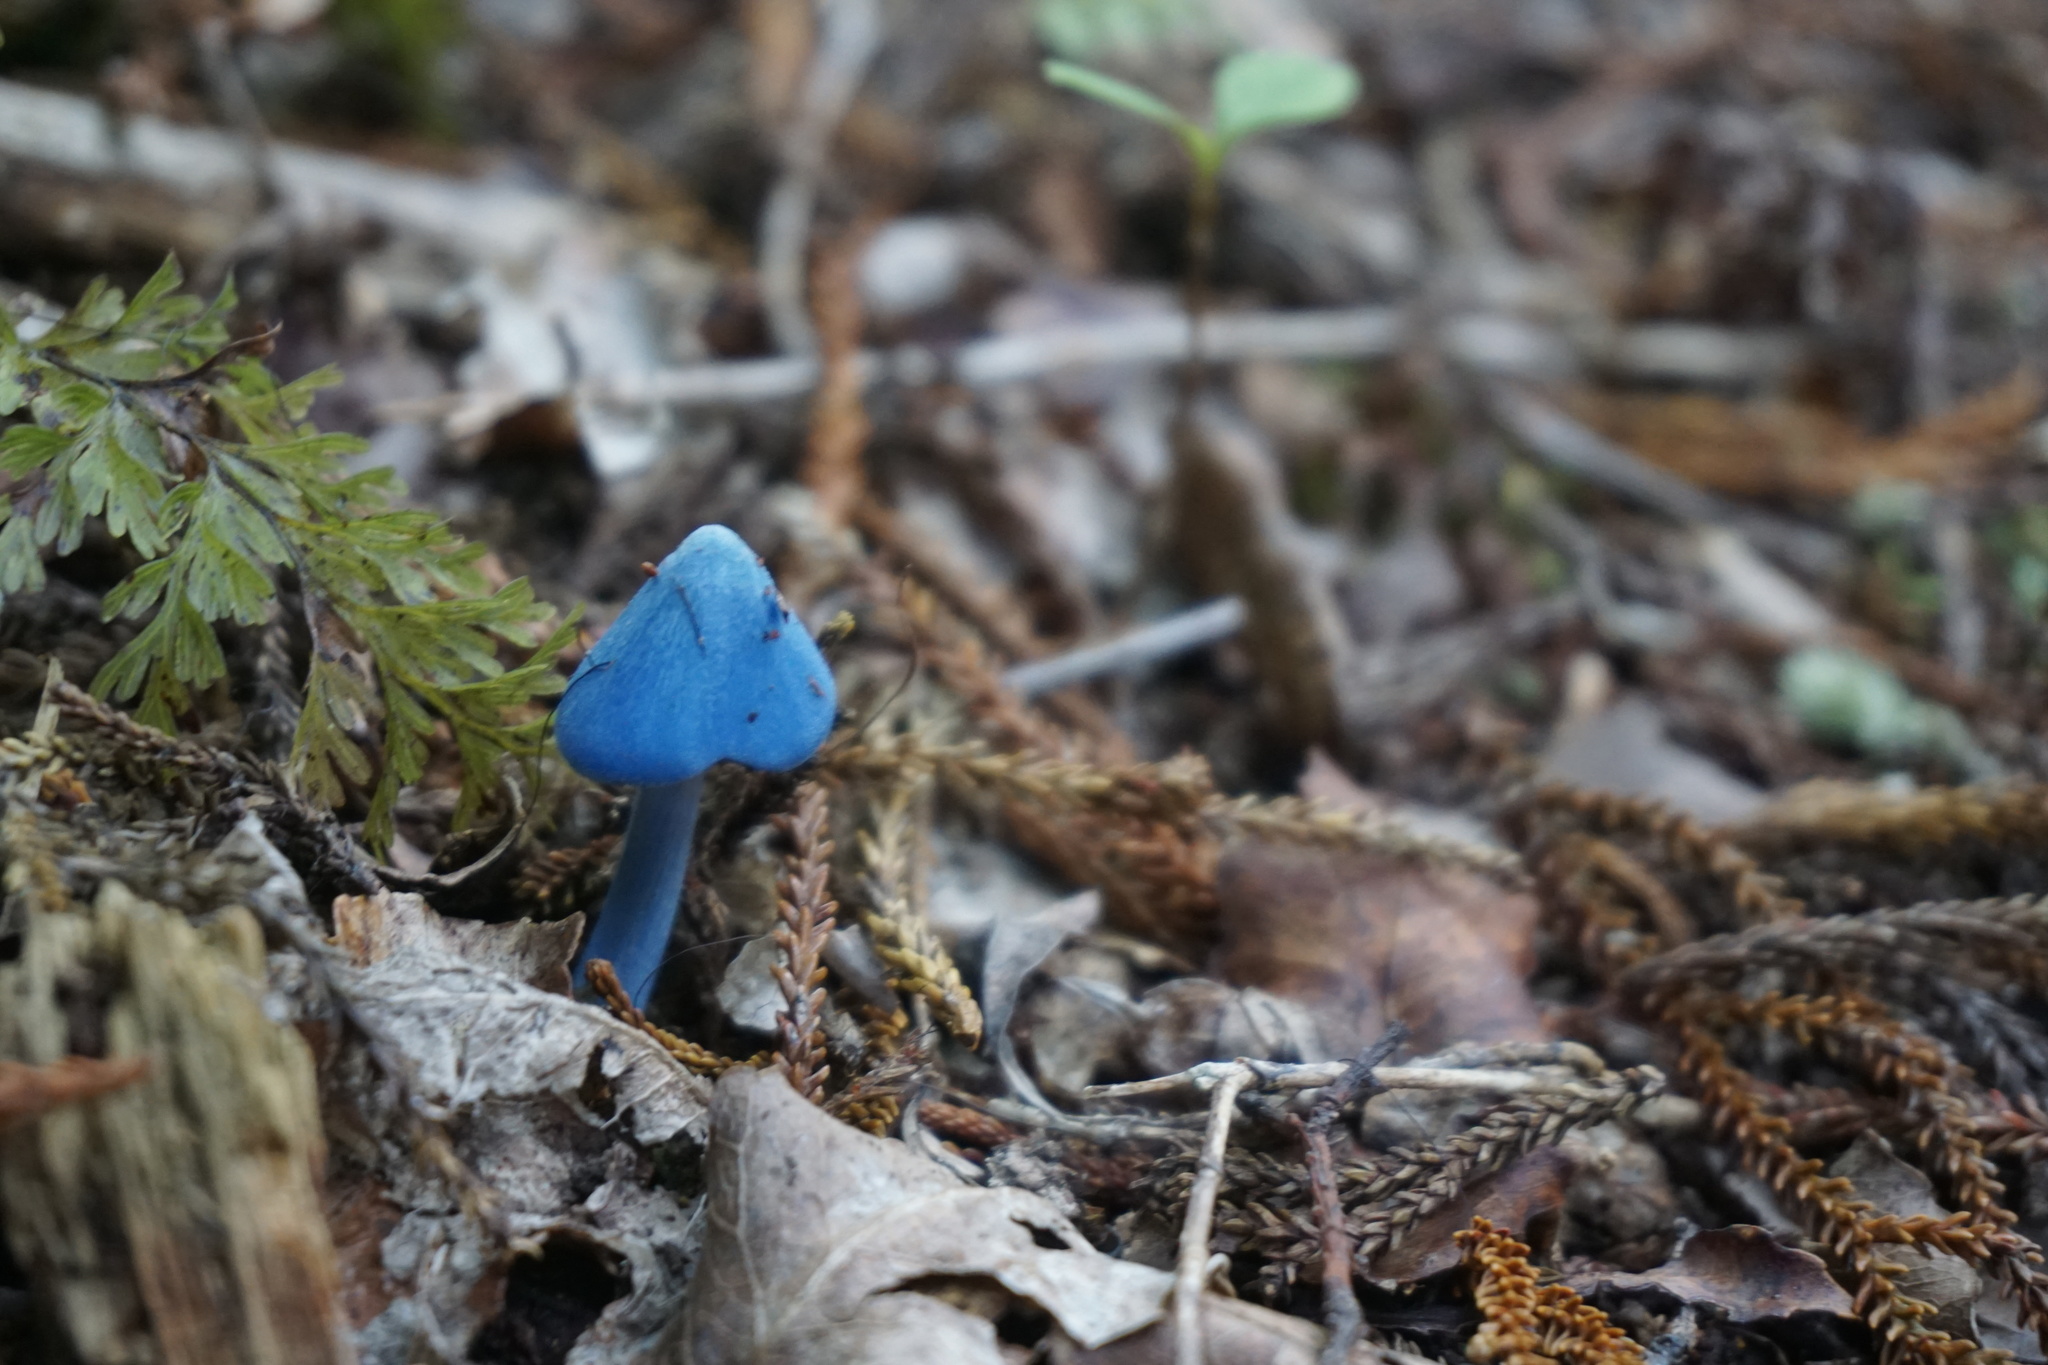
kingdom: Fungi
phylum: Basidiomycota
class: Agaricomycetes
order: Agaricales
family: Entolomataceae
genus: Entoloma
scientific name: Entoloma hochstetteri
